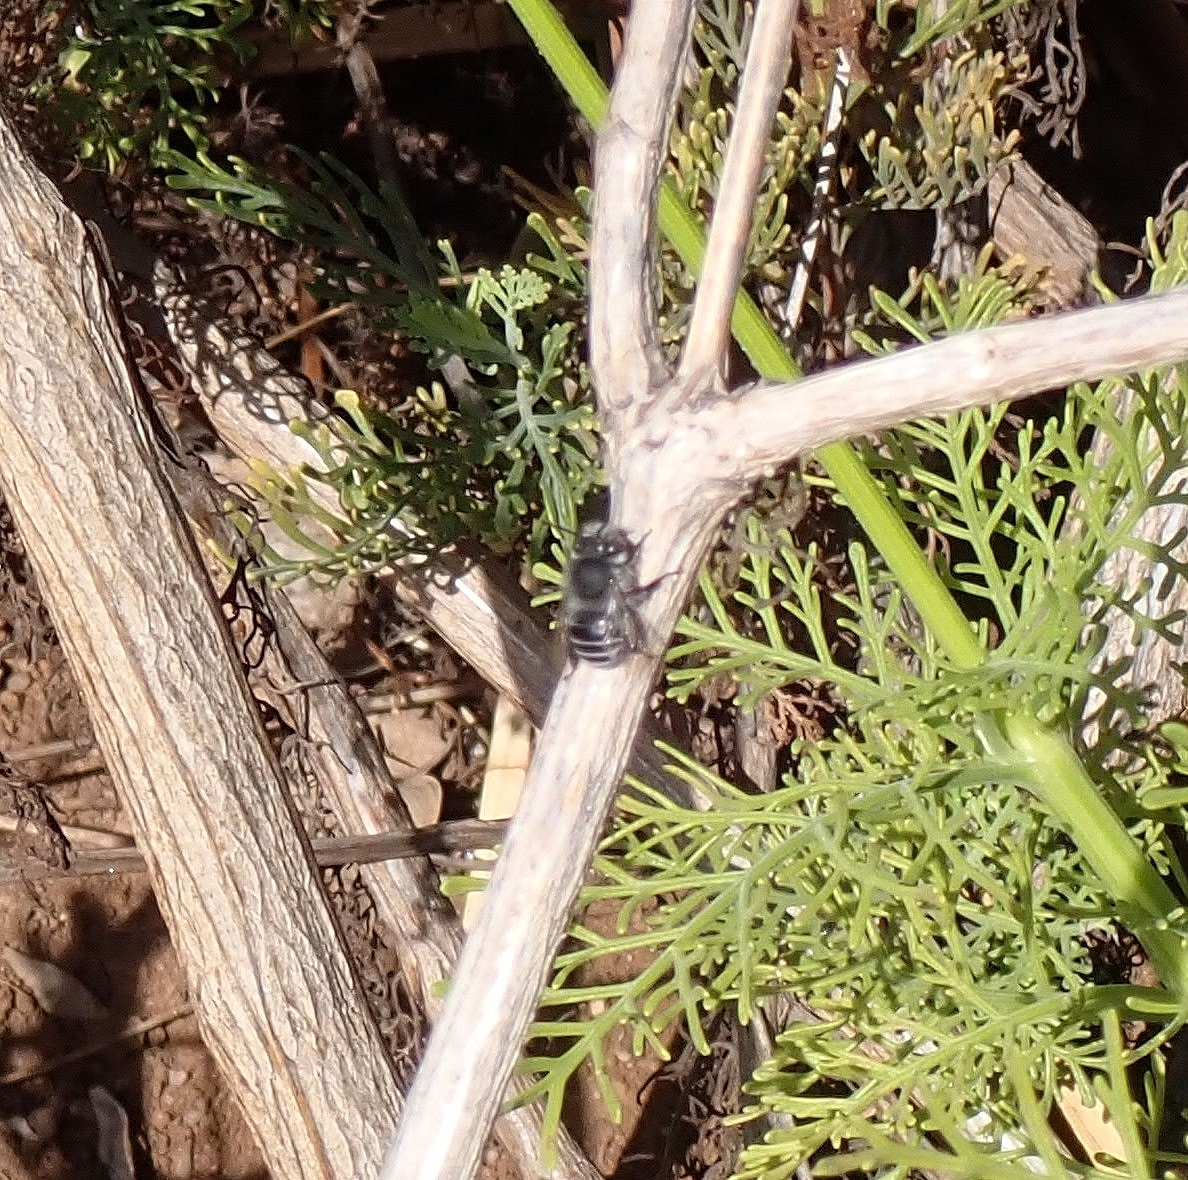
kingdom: Animalia
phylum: Arthropoda
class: Insecta
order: Hymenoptera
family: Apidae
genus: Anthophora
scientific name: Anthophora orotavae
